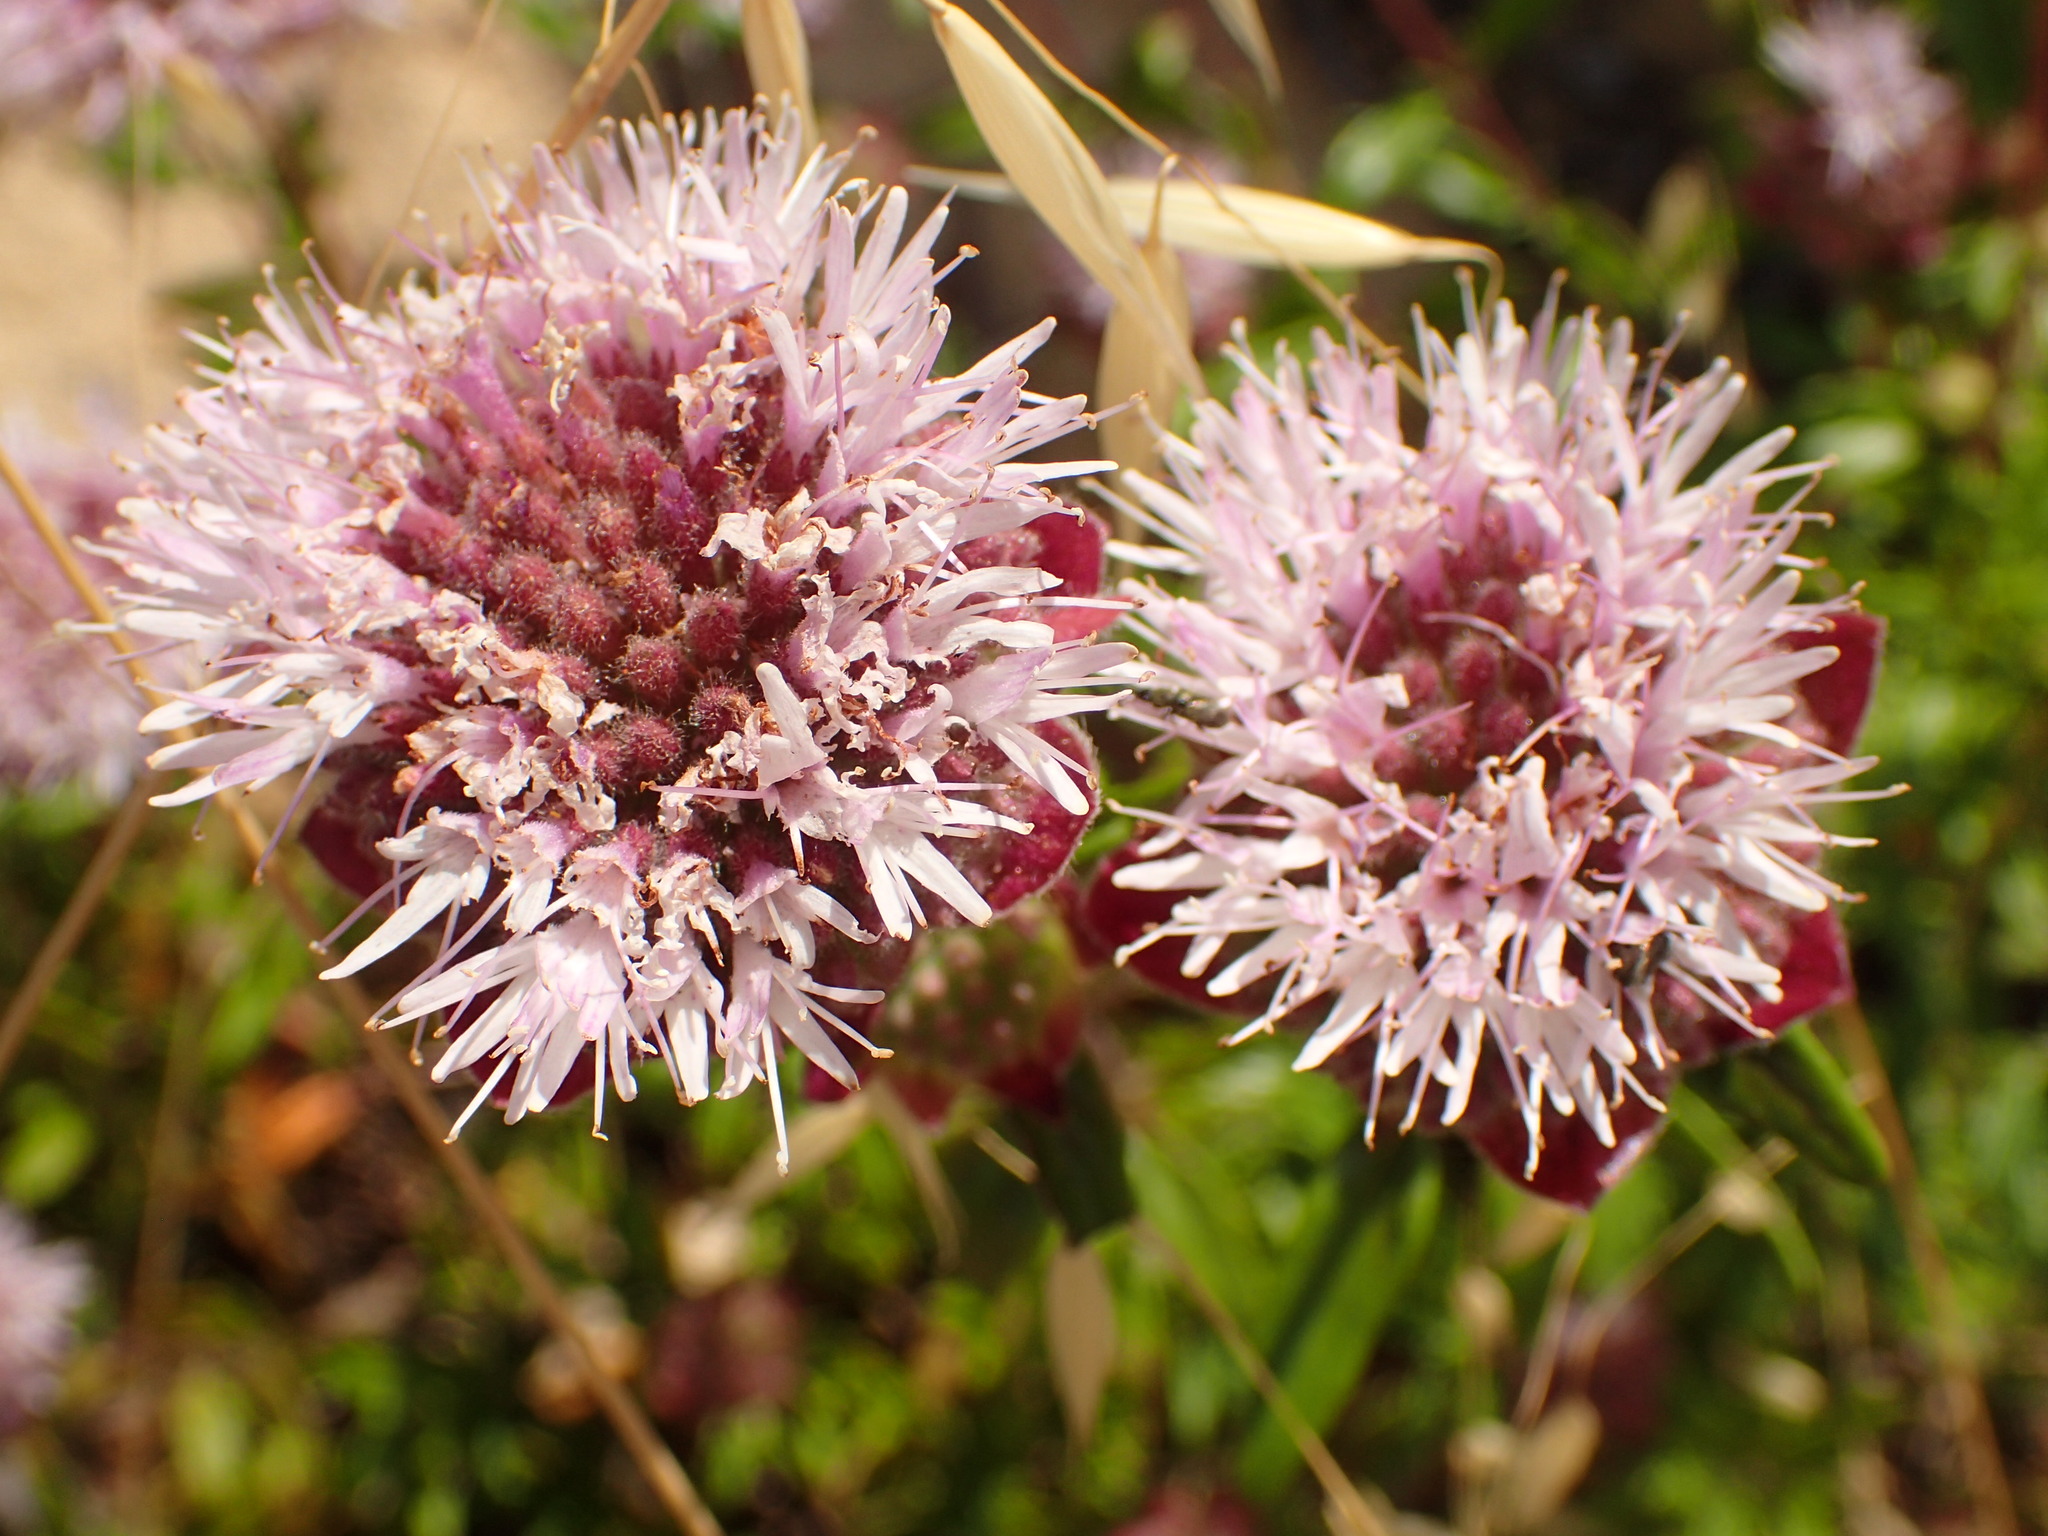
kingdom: Plantae
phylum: Tracheophyta
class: Magnoliopsida
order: Lamiales
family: Lamiaceae
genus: Monardella
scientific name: Monardella hypoleuca
